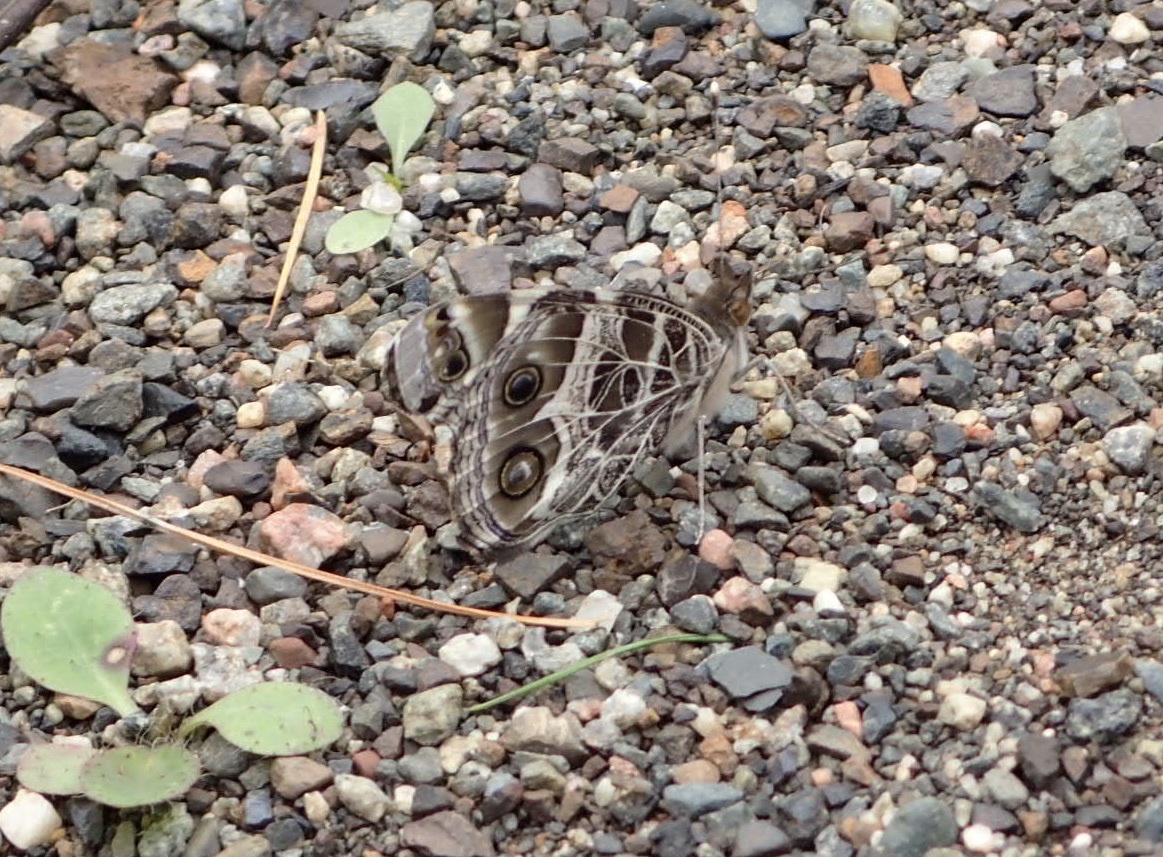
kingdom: Animalia
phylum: Arthropoda
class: Insecta
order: Lepidoptera
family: Nymphalidae
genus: Vanessa
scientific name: Vanessa virginiensis
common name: American lady
